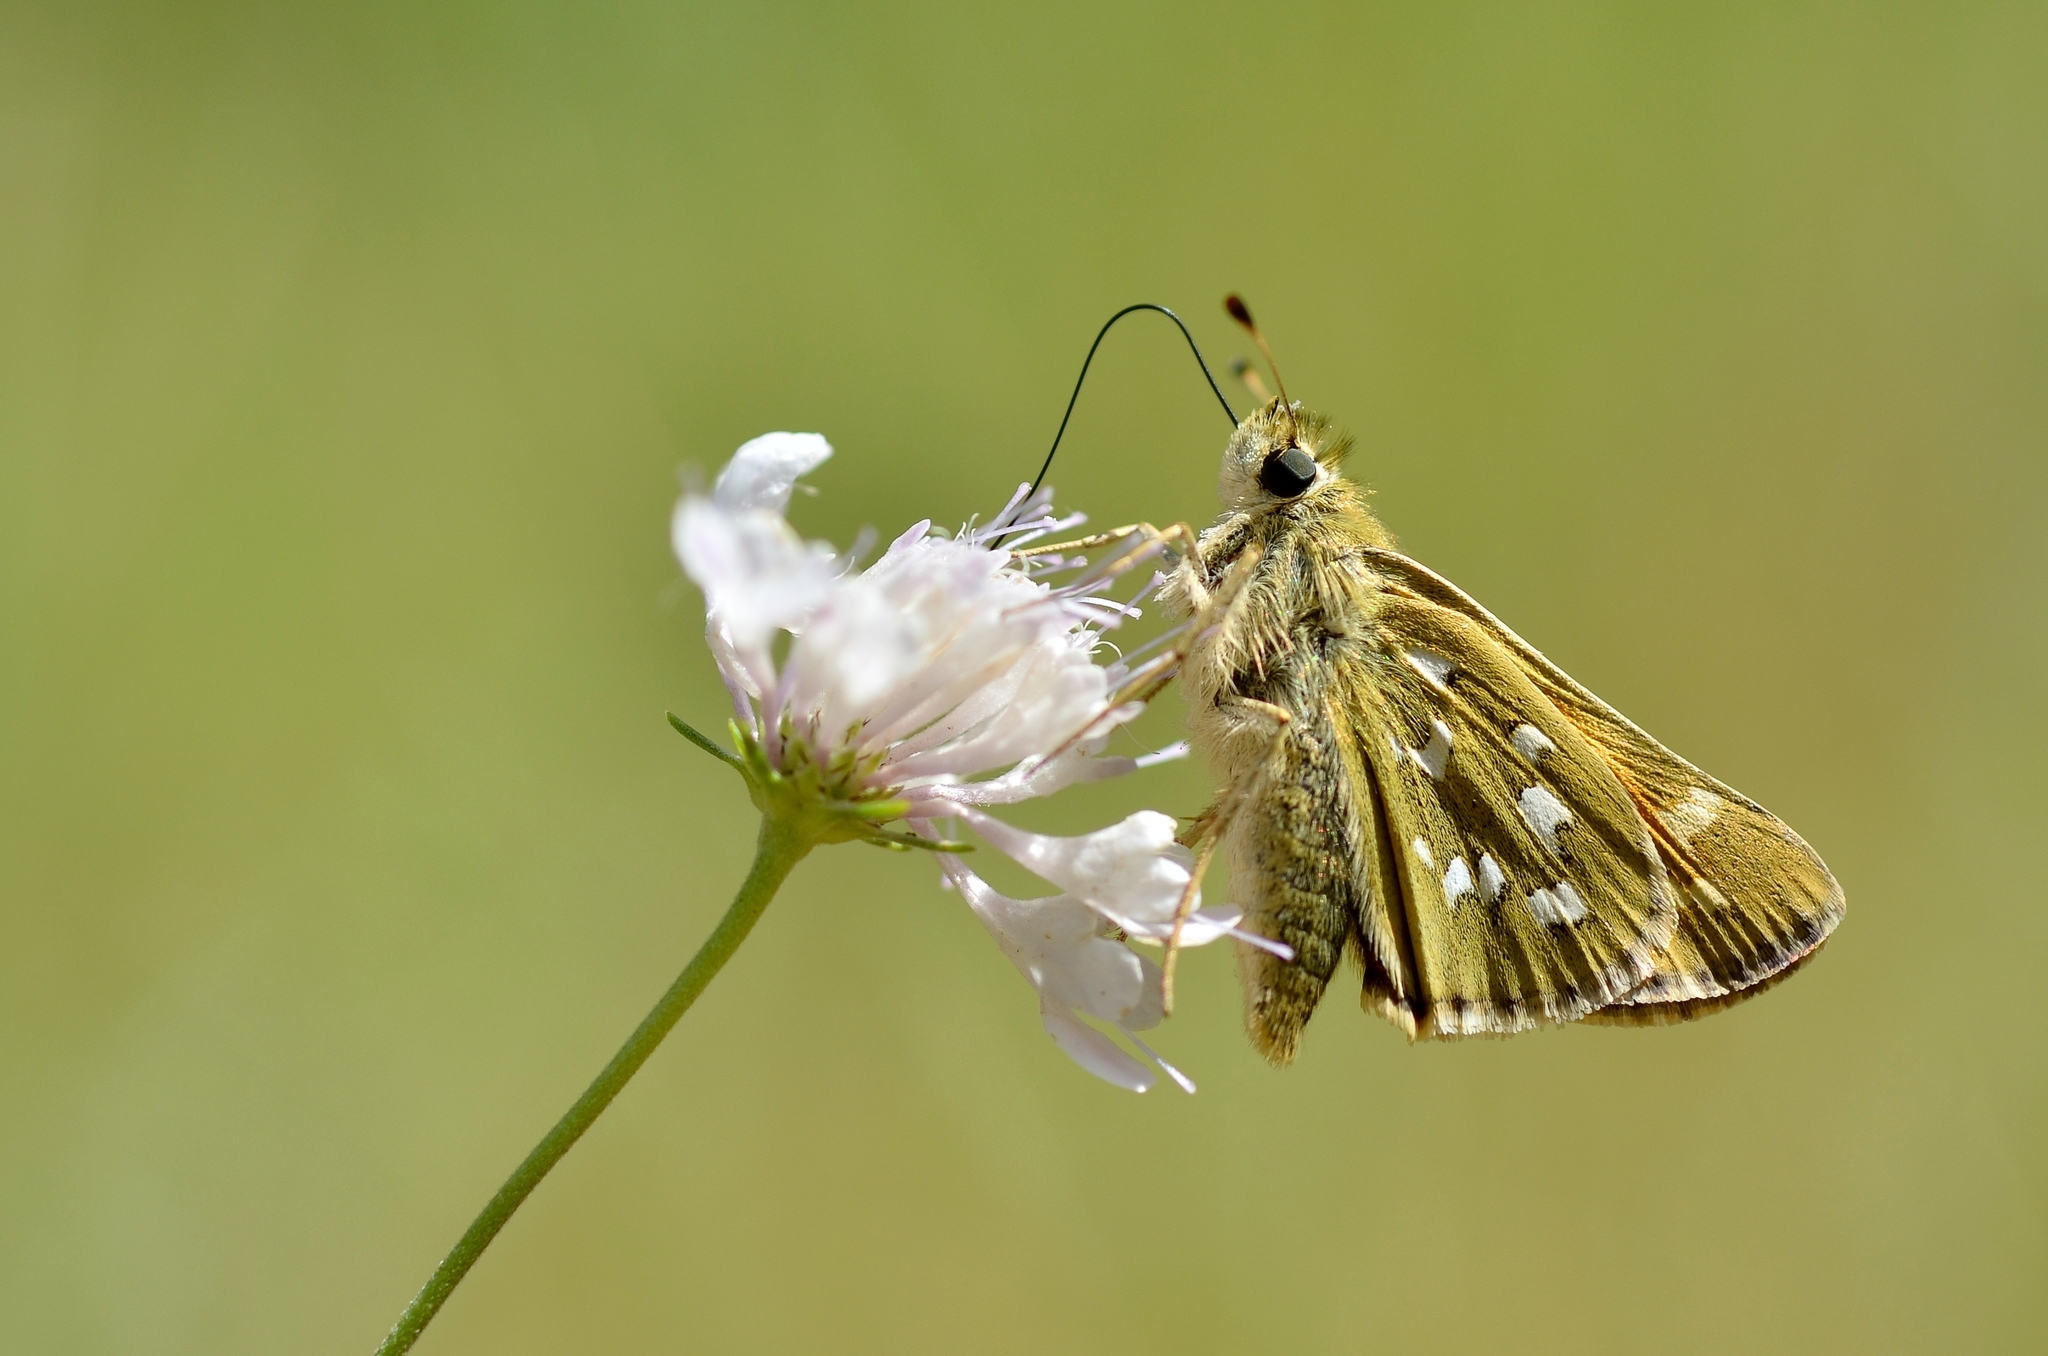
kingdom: Animalia
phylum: Arthropoda
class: Insecta
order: Lepidoptera
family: Hesperiidae
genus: Hesperia
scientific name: Hesperia comma
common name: Common branded skipper
